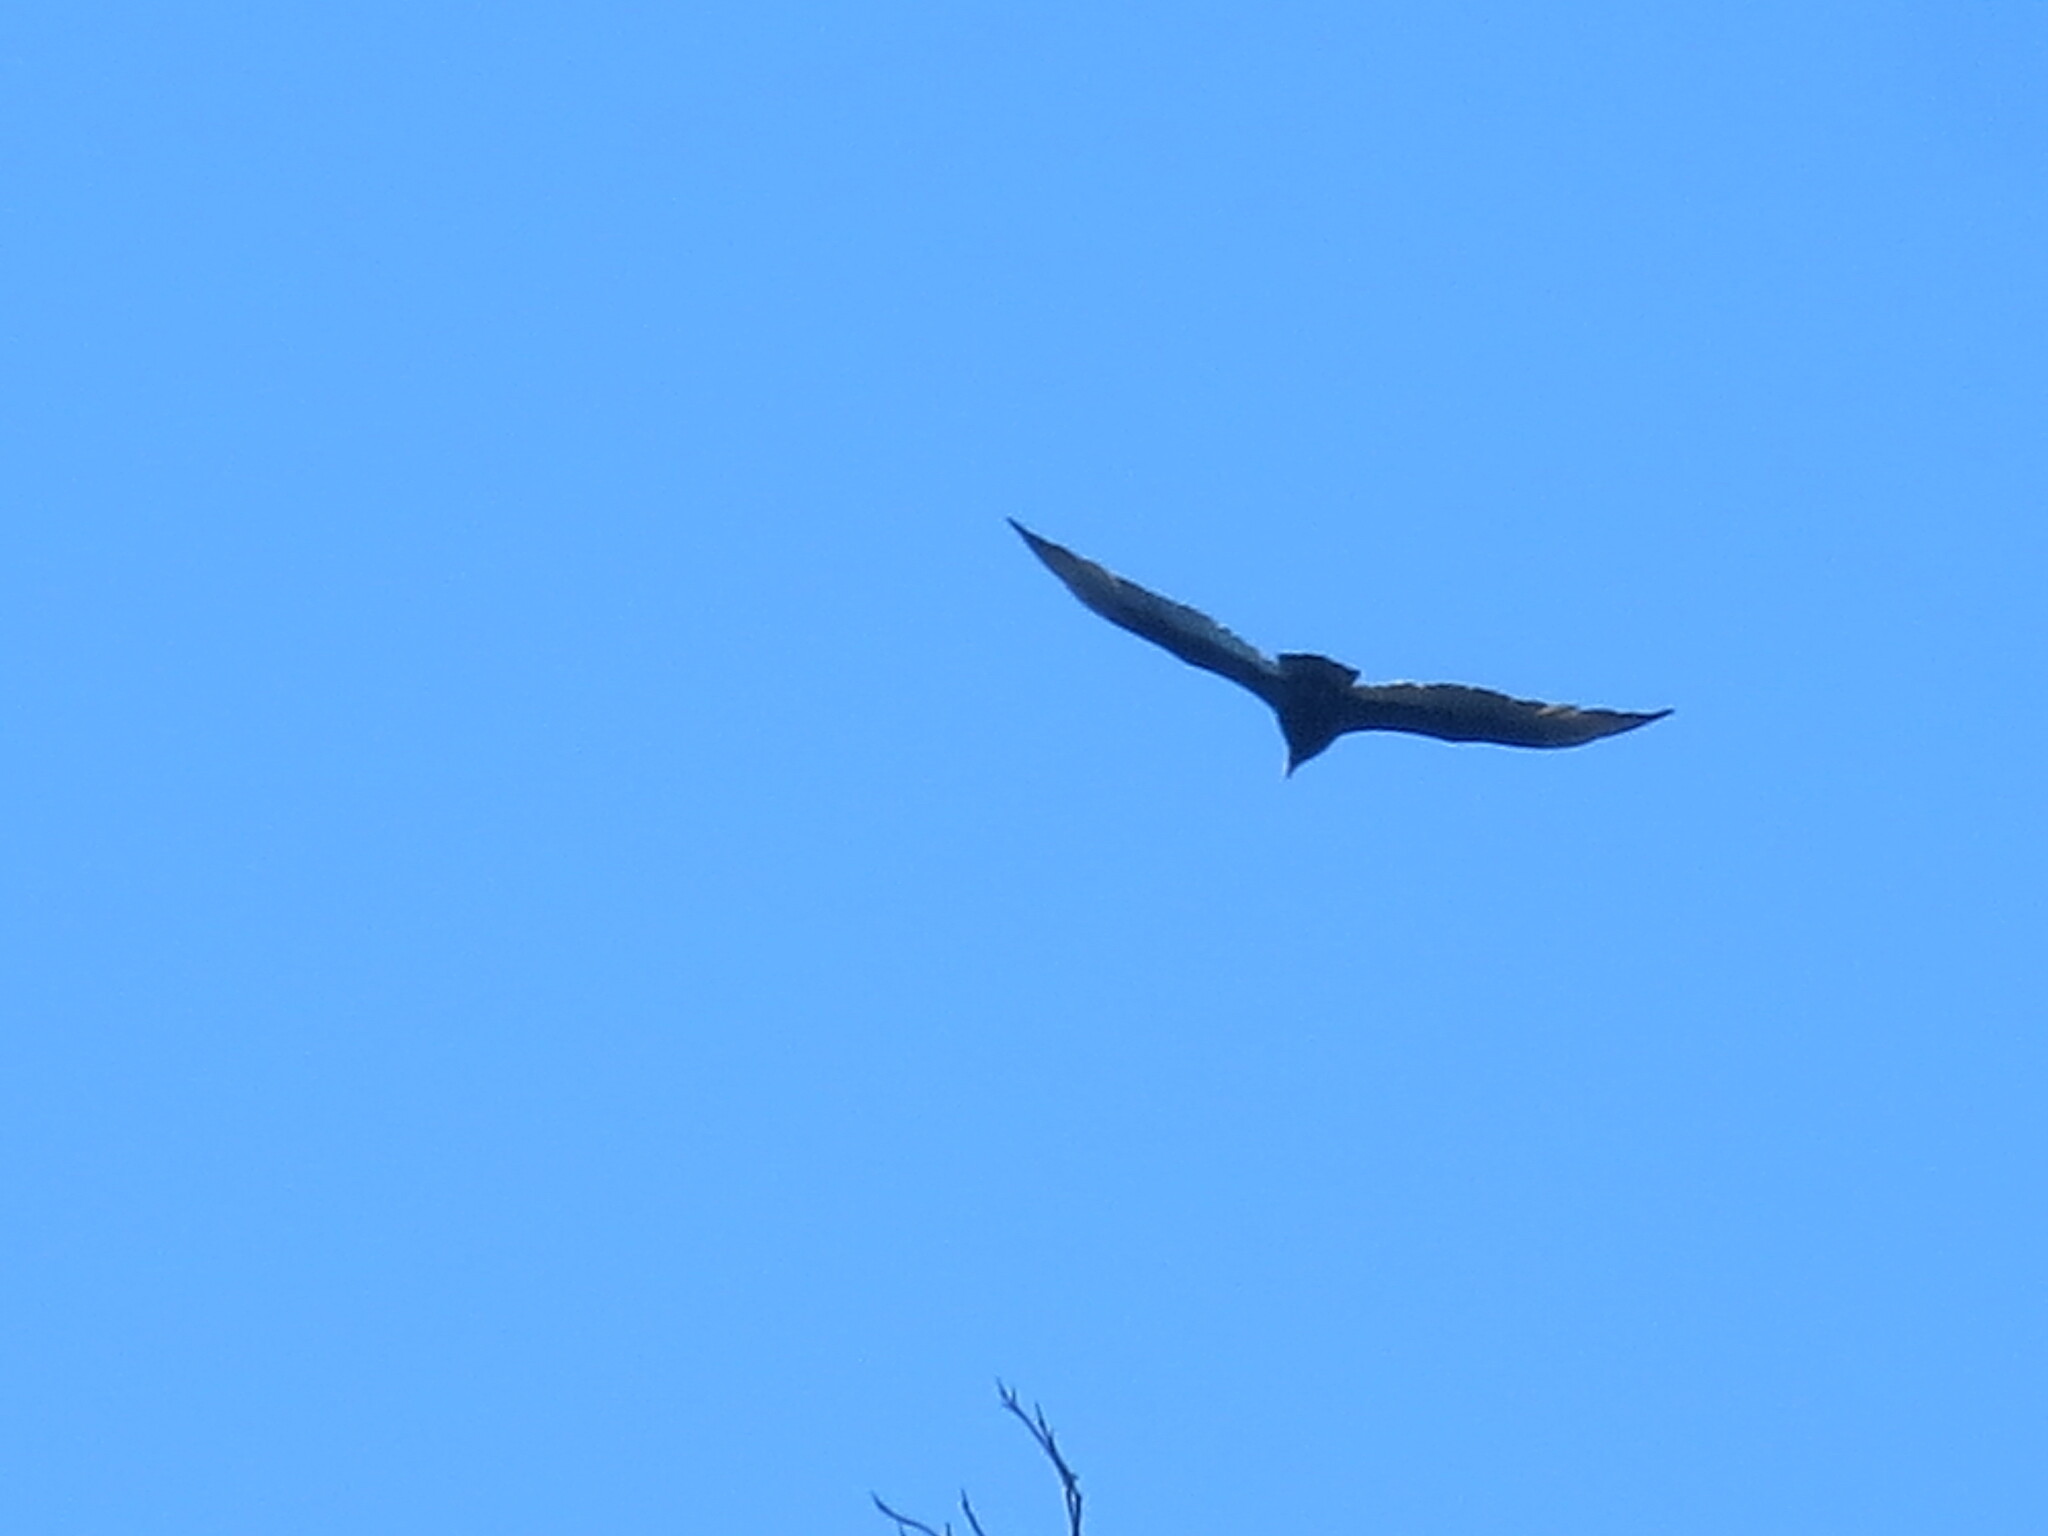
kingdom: Animalia
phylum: Chordata
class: Aves
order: Accipitriformes
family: Cathartidae
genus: Cathartes
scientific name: Cathartes aura
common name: Turkey vulture
